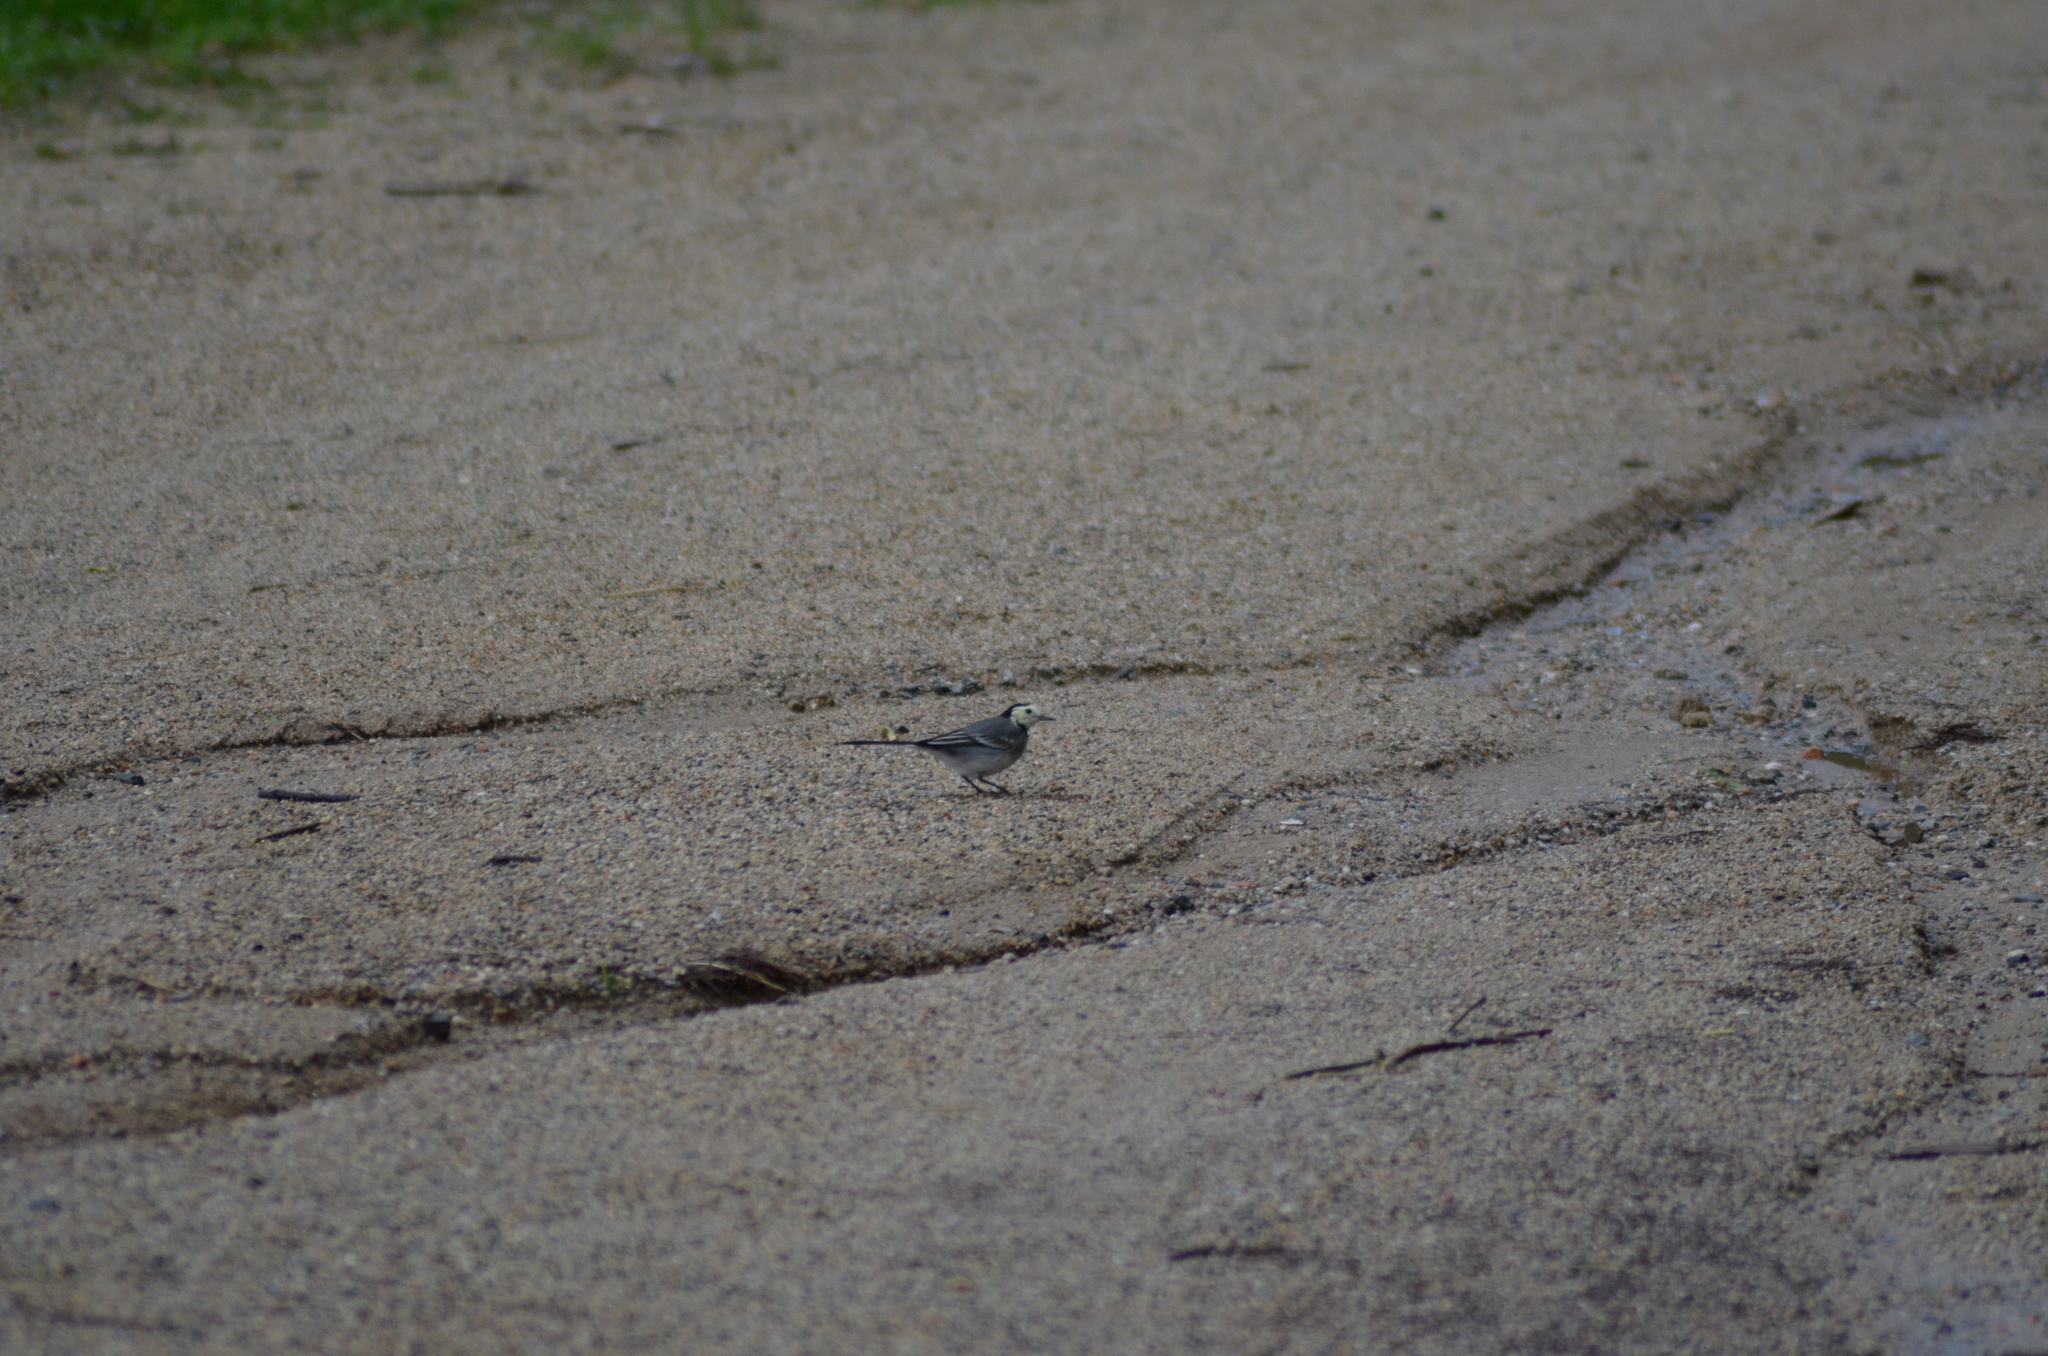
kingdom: Animalia
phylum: Chordata
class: Aves
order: Passeriformes
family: Motacillidae
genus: Motacilla
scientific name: Motacilla alba
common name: White wagtail
